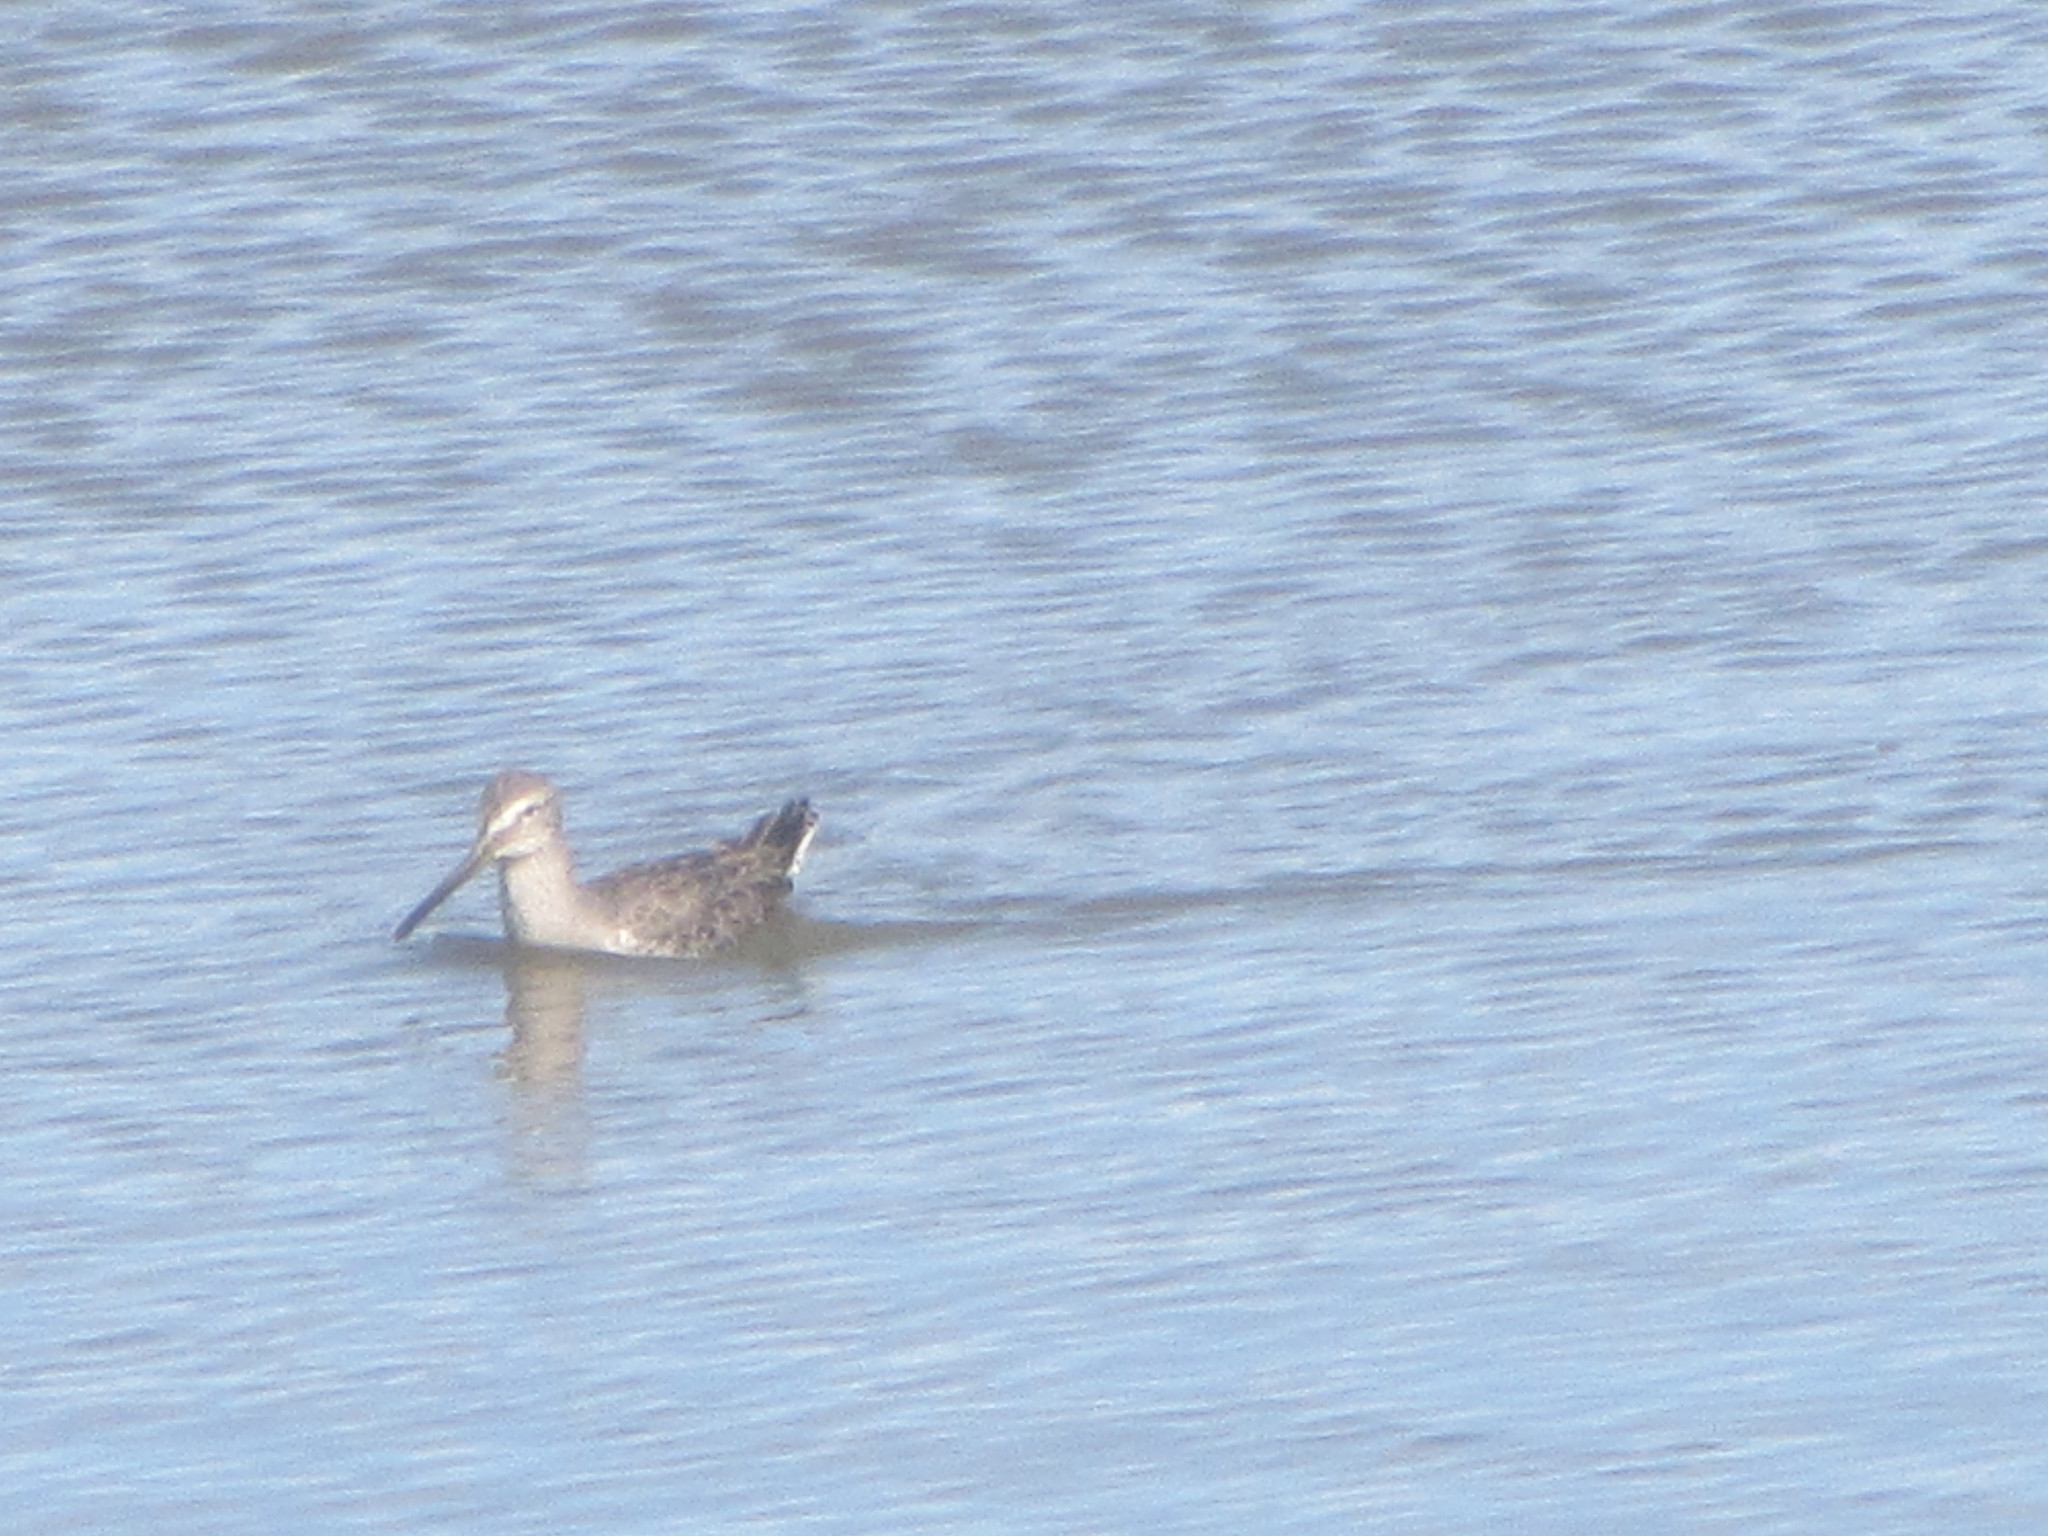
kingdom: Animalia
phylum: Chordata
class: Aves
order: Charadriiformes
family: Scolopacidae
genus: Limnodromus
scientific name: Limnodromus
